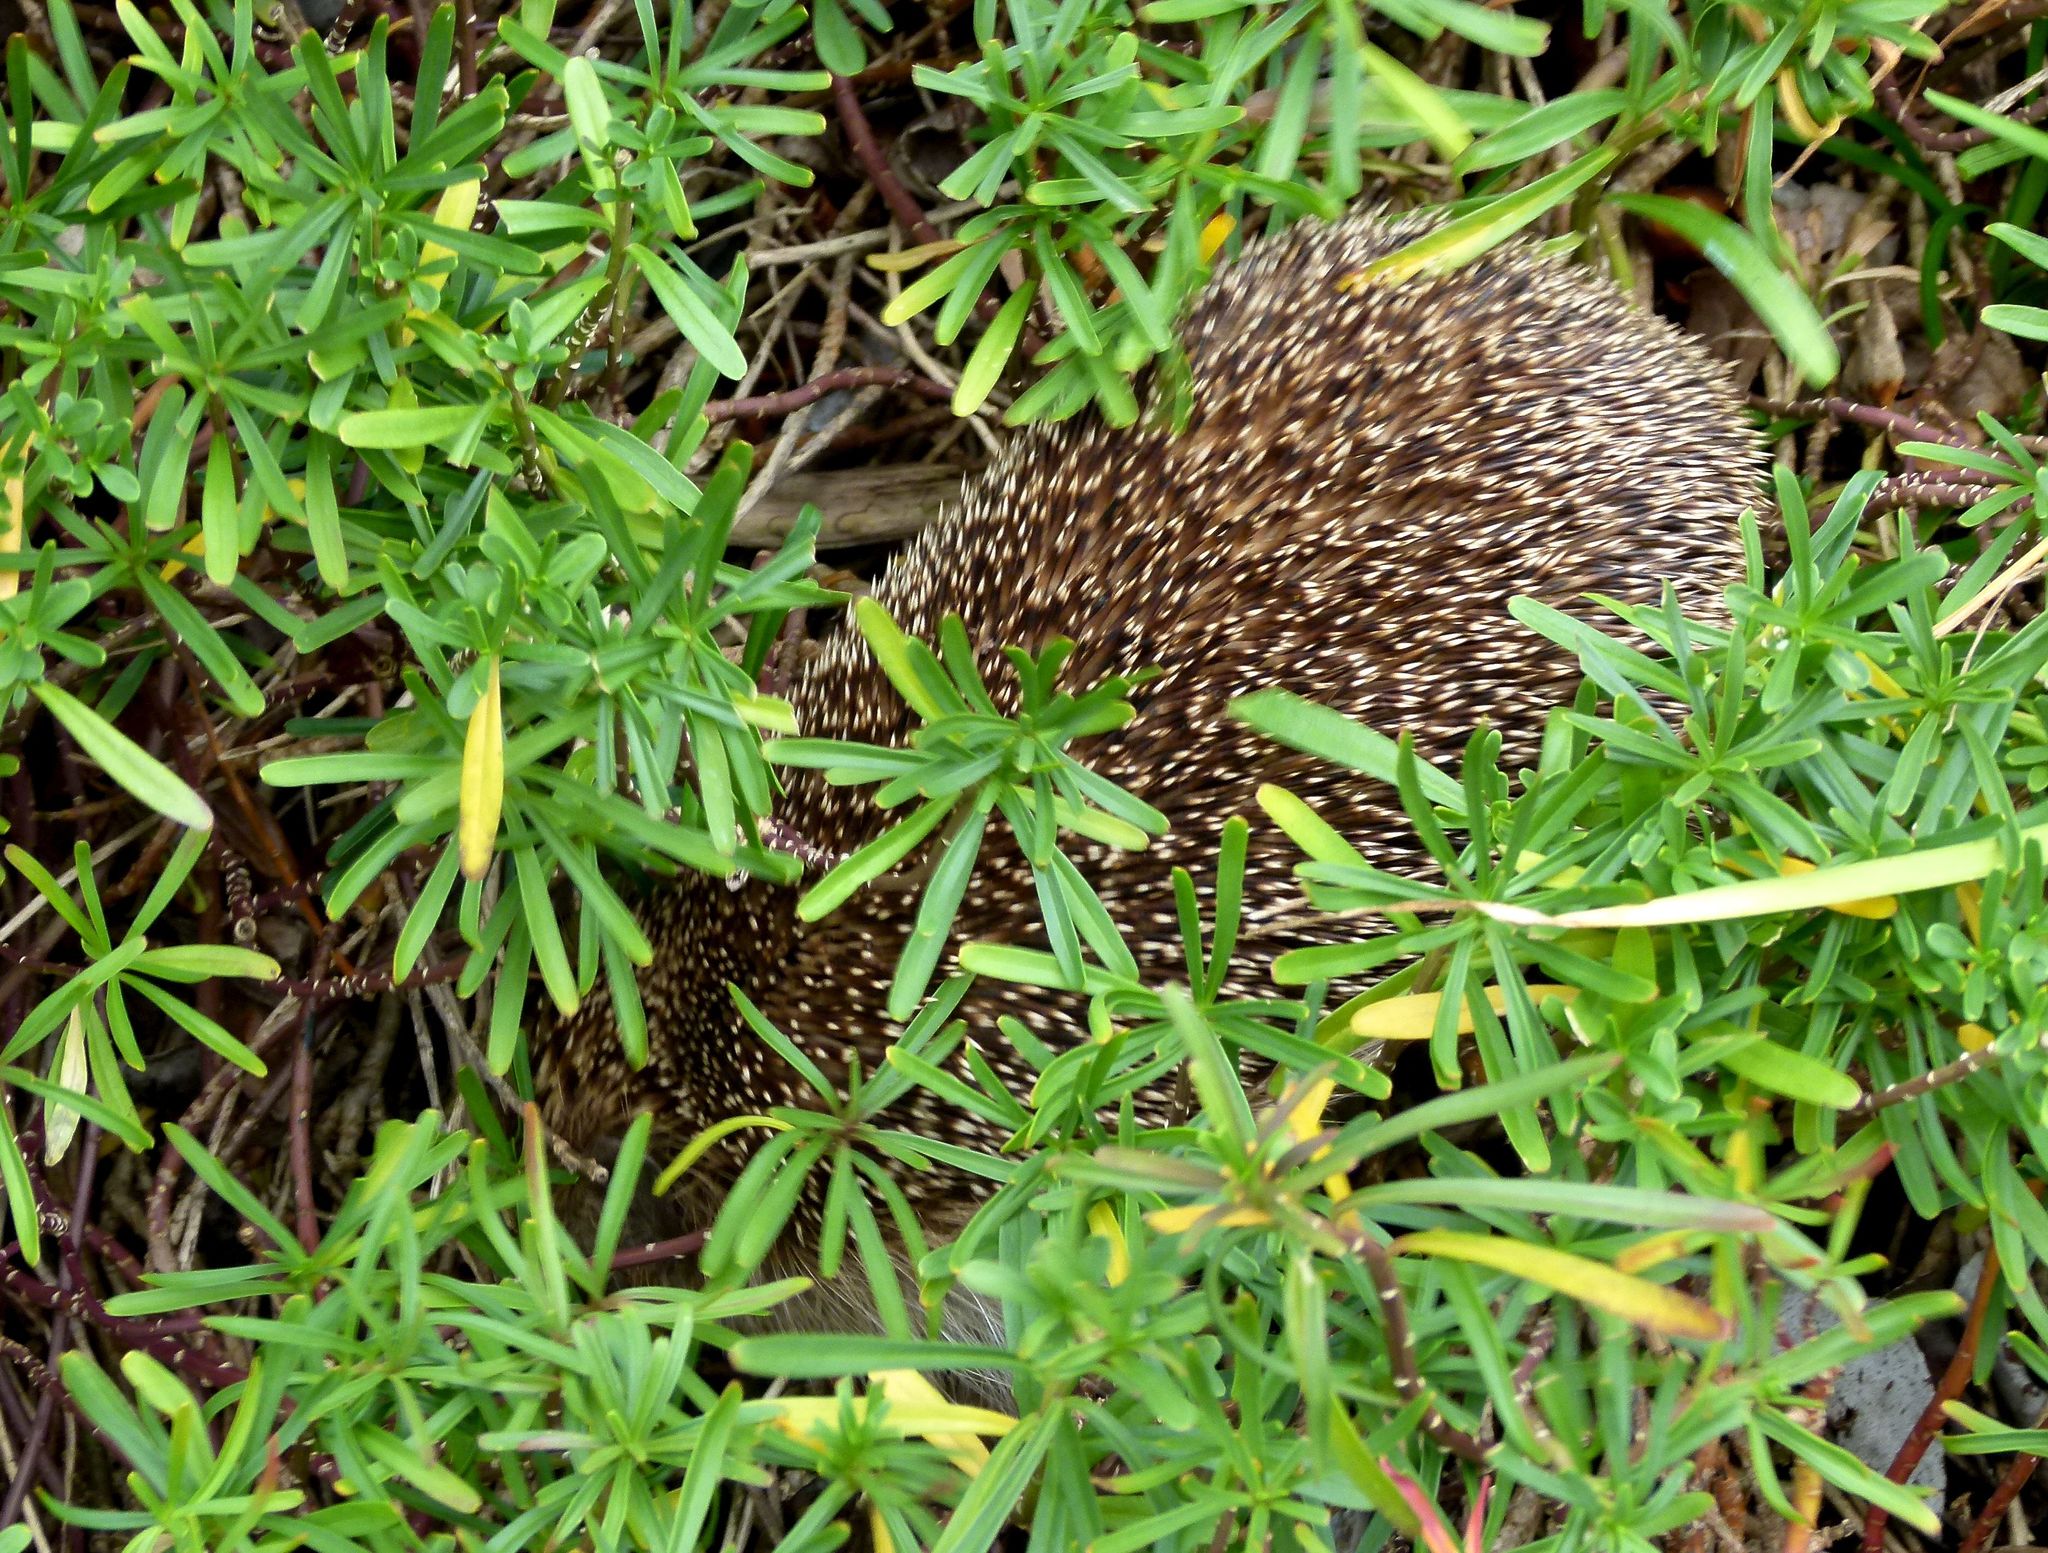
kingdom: Animalia
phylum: Chordata
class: Mammalia
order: Erinaceomorpha
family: Erinaceidae
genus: Erinaceus
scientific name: Erinaceus europaeus
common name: West european hedgehog
